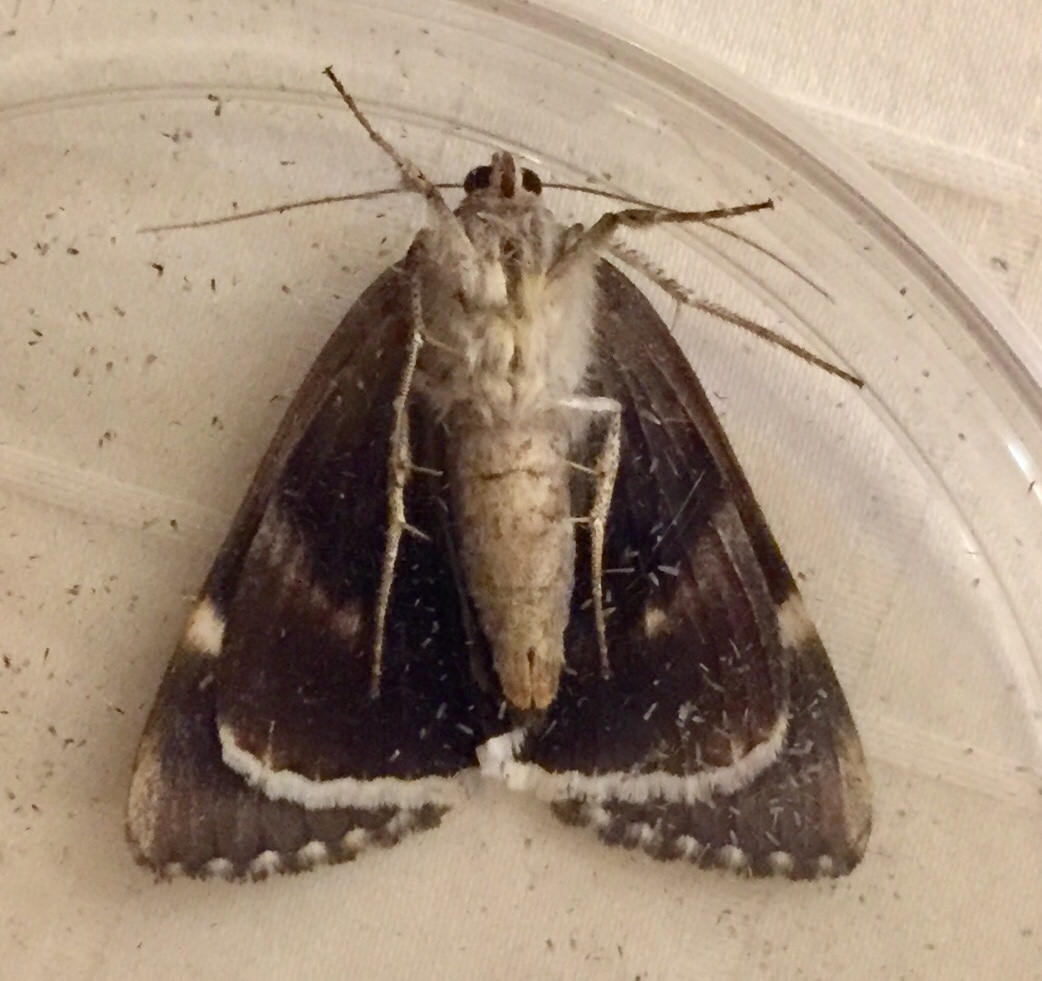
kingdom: Animalia
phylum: Arthropoda
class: Insecta
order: Lepidoptera
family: Erebidae
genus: Catocala
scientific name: Catocala epione
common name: Epione underwing
